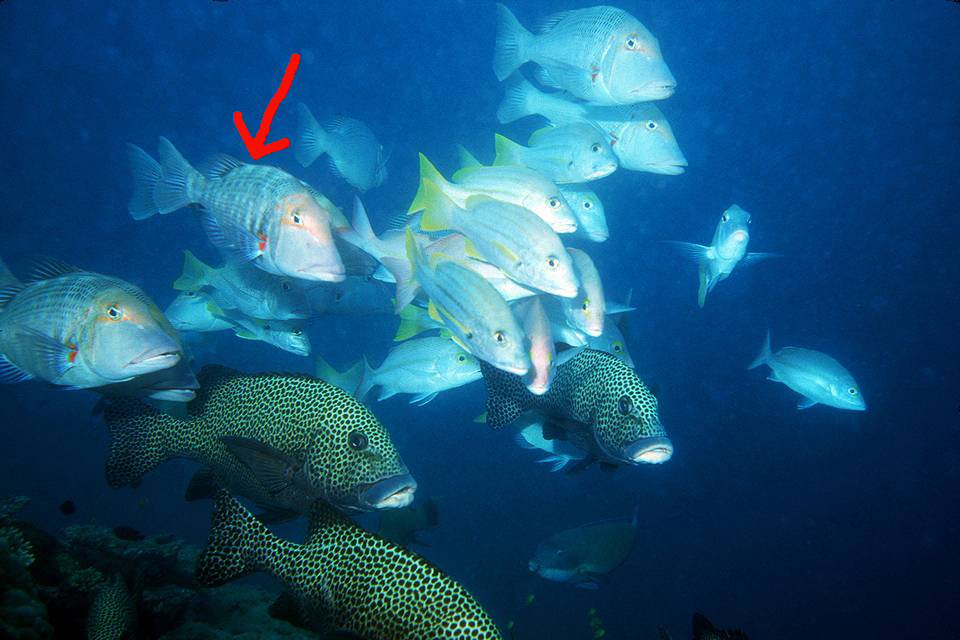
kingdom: Animalia
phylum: Chordata
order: Perciformes
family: Lethrinidae
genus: Lethrinus
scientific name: Lethrinus miniatus
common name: Trumpet emperor
